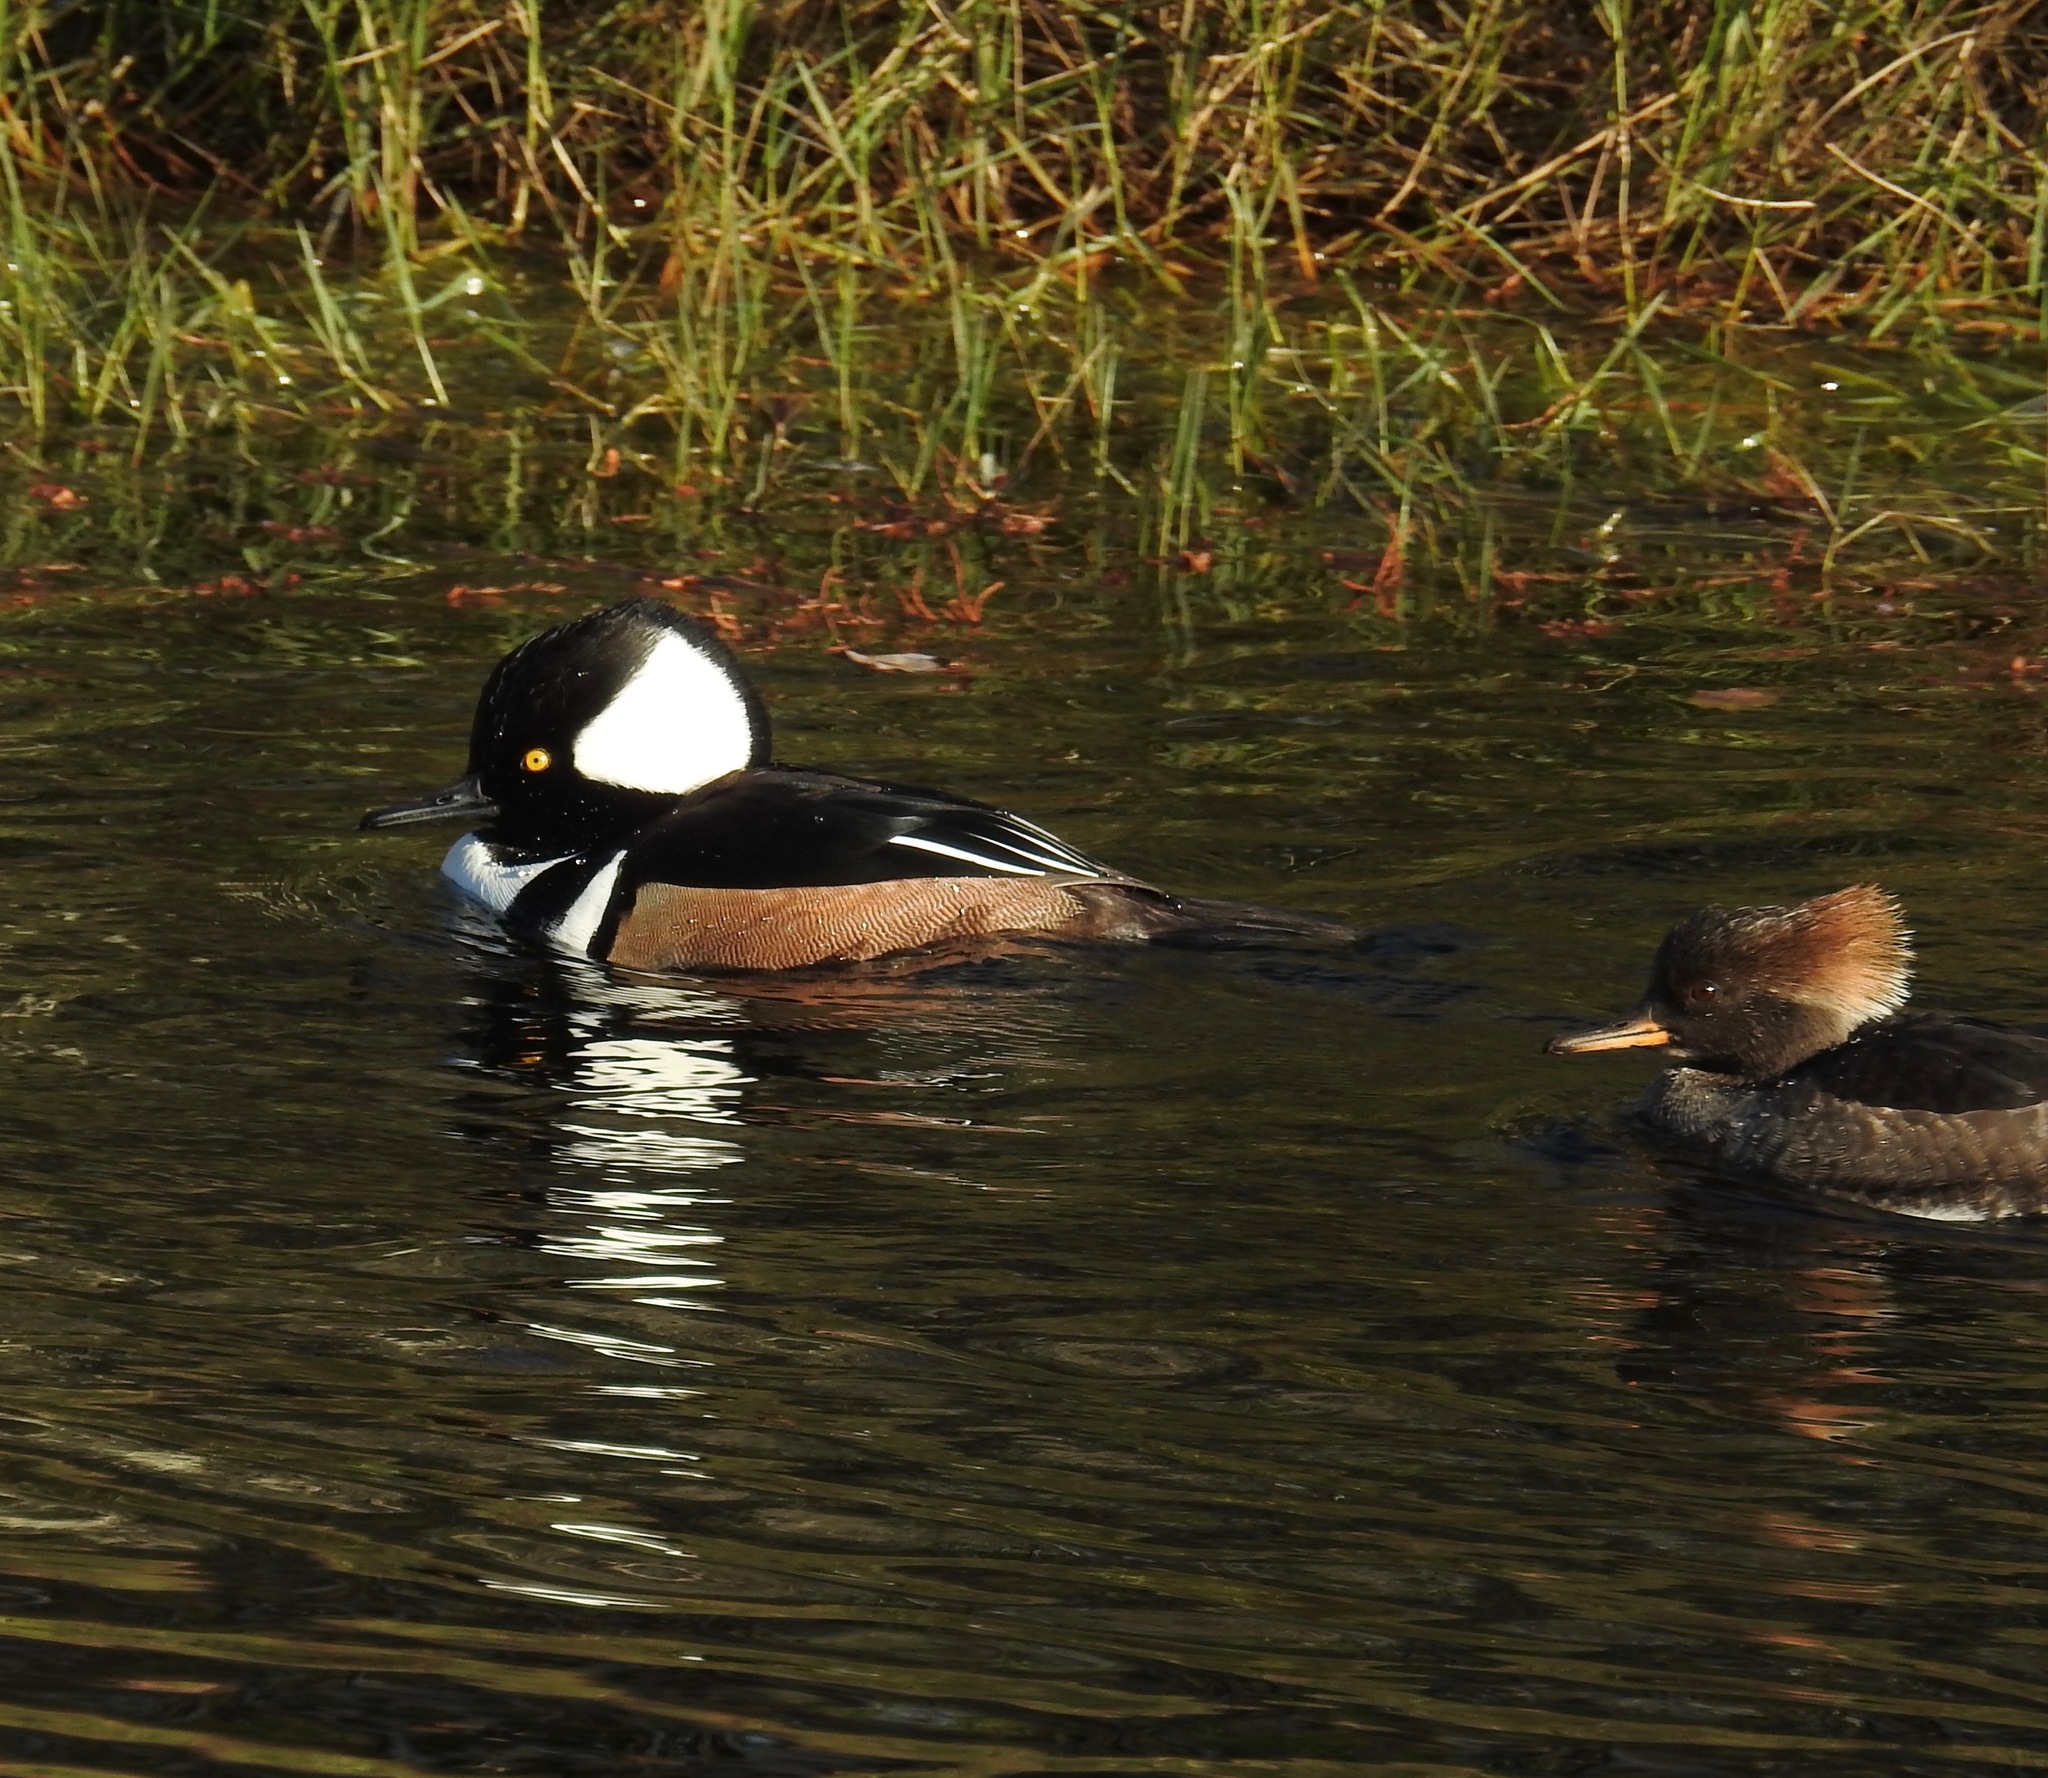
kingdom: Animalia
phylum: Chordata
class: Aves
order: Anseriformes
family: Anatidae
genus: Lophodytes
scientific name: Lophodytes cucullatus
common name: Hooded merganser
